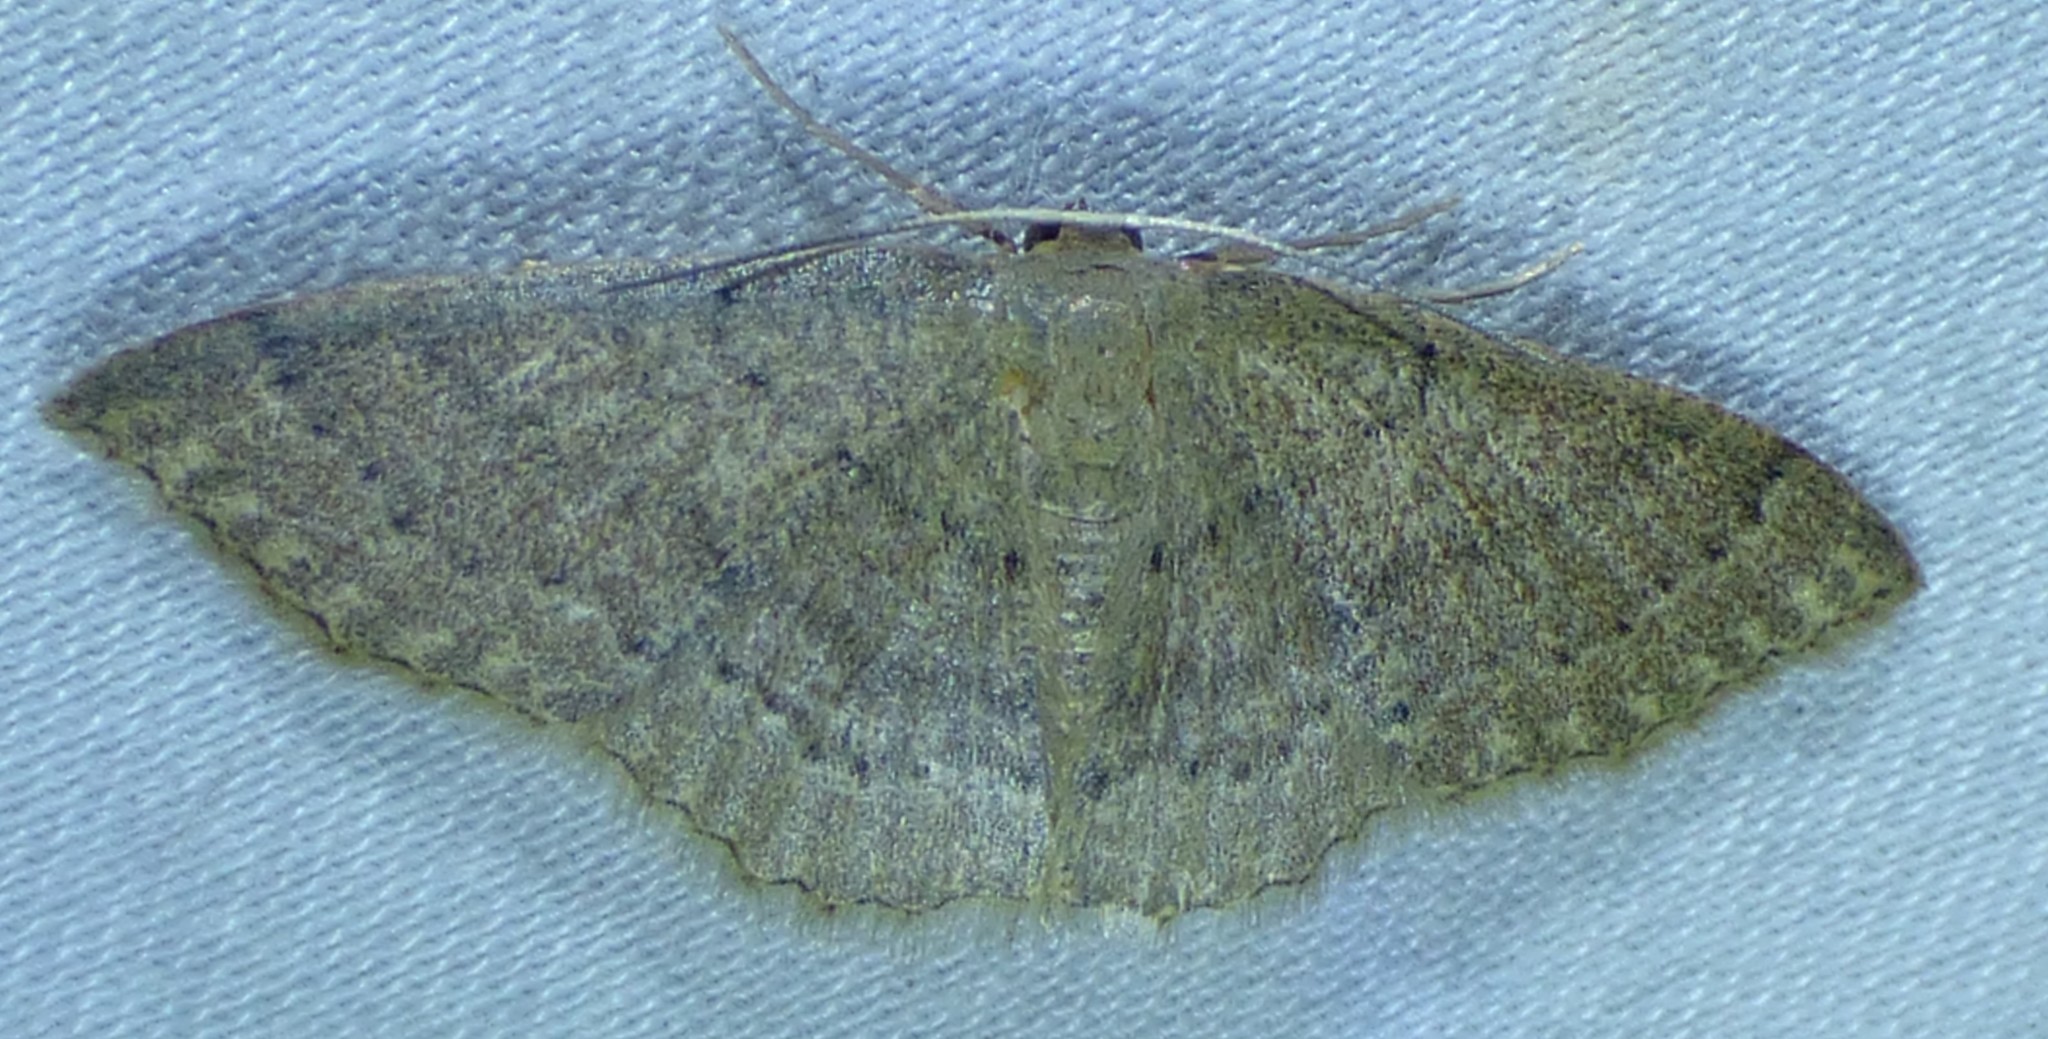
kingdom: Animalia
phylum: Arthropoda
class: Insecta
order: Lepidoptera
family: Geometridae
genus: Pleuroprucha
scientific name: Pleuroprucha insulsaria
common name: Common tan wave
